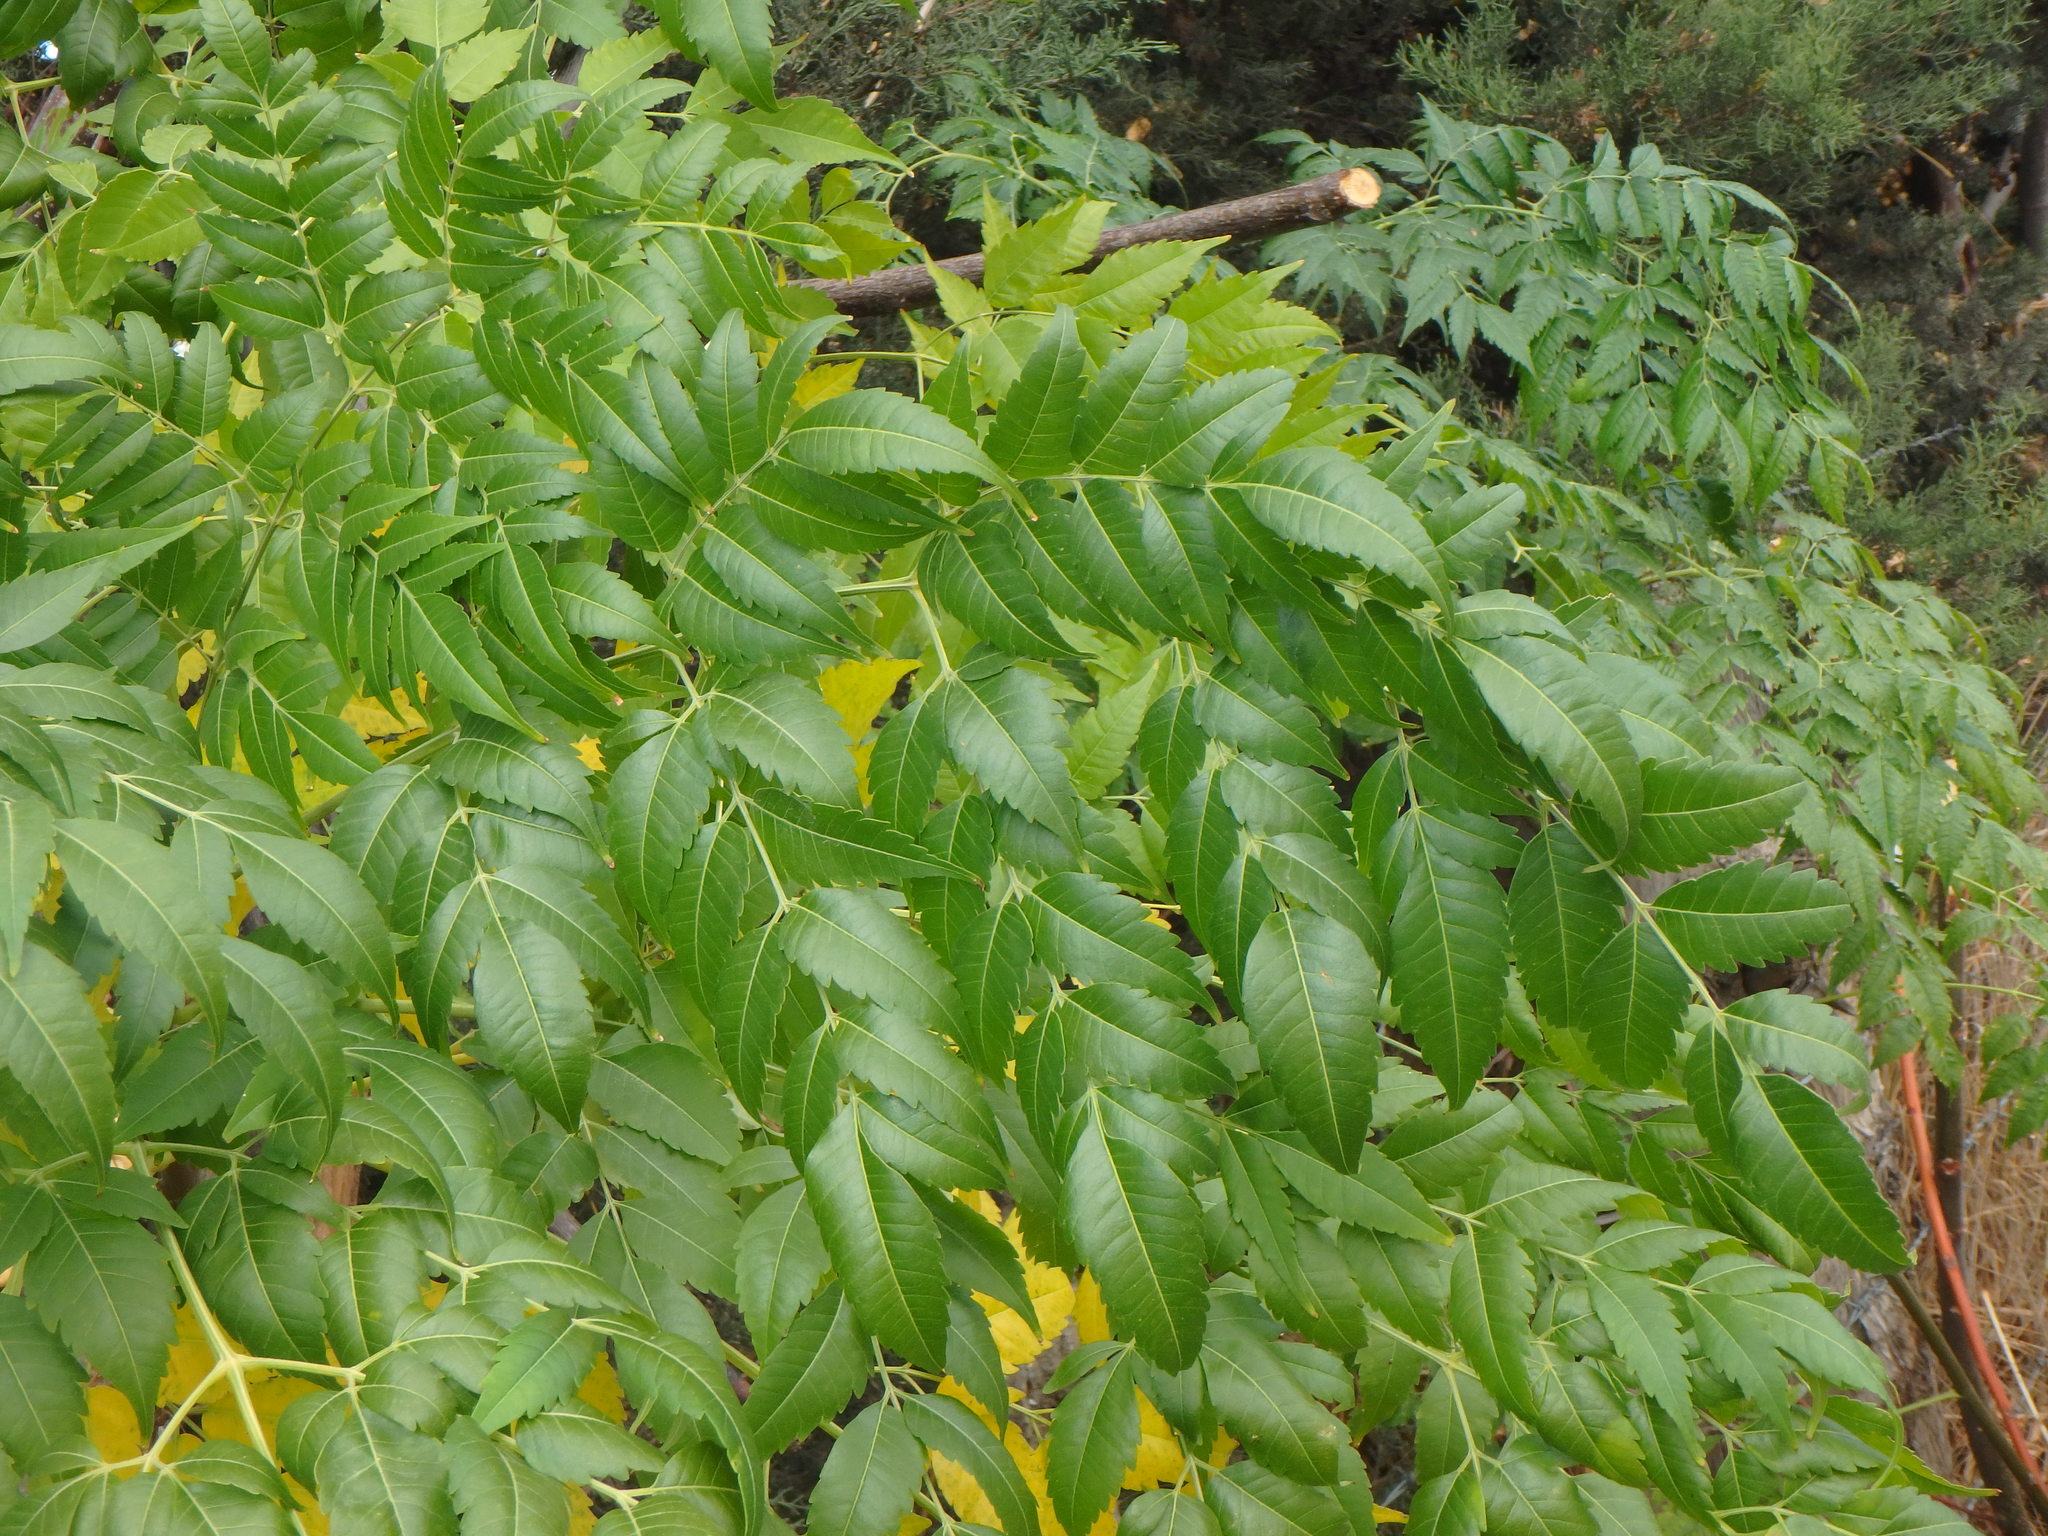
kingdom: Plantae
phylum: Tracheophyta
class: Magnoliopsida
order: Sapindales
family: Meliaceae
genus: Melia
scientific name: Melia azedarach
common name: Chinaberrytree
